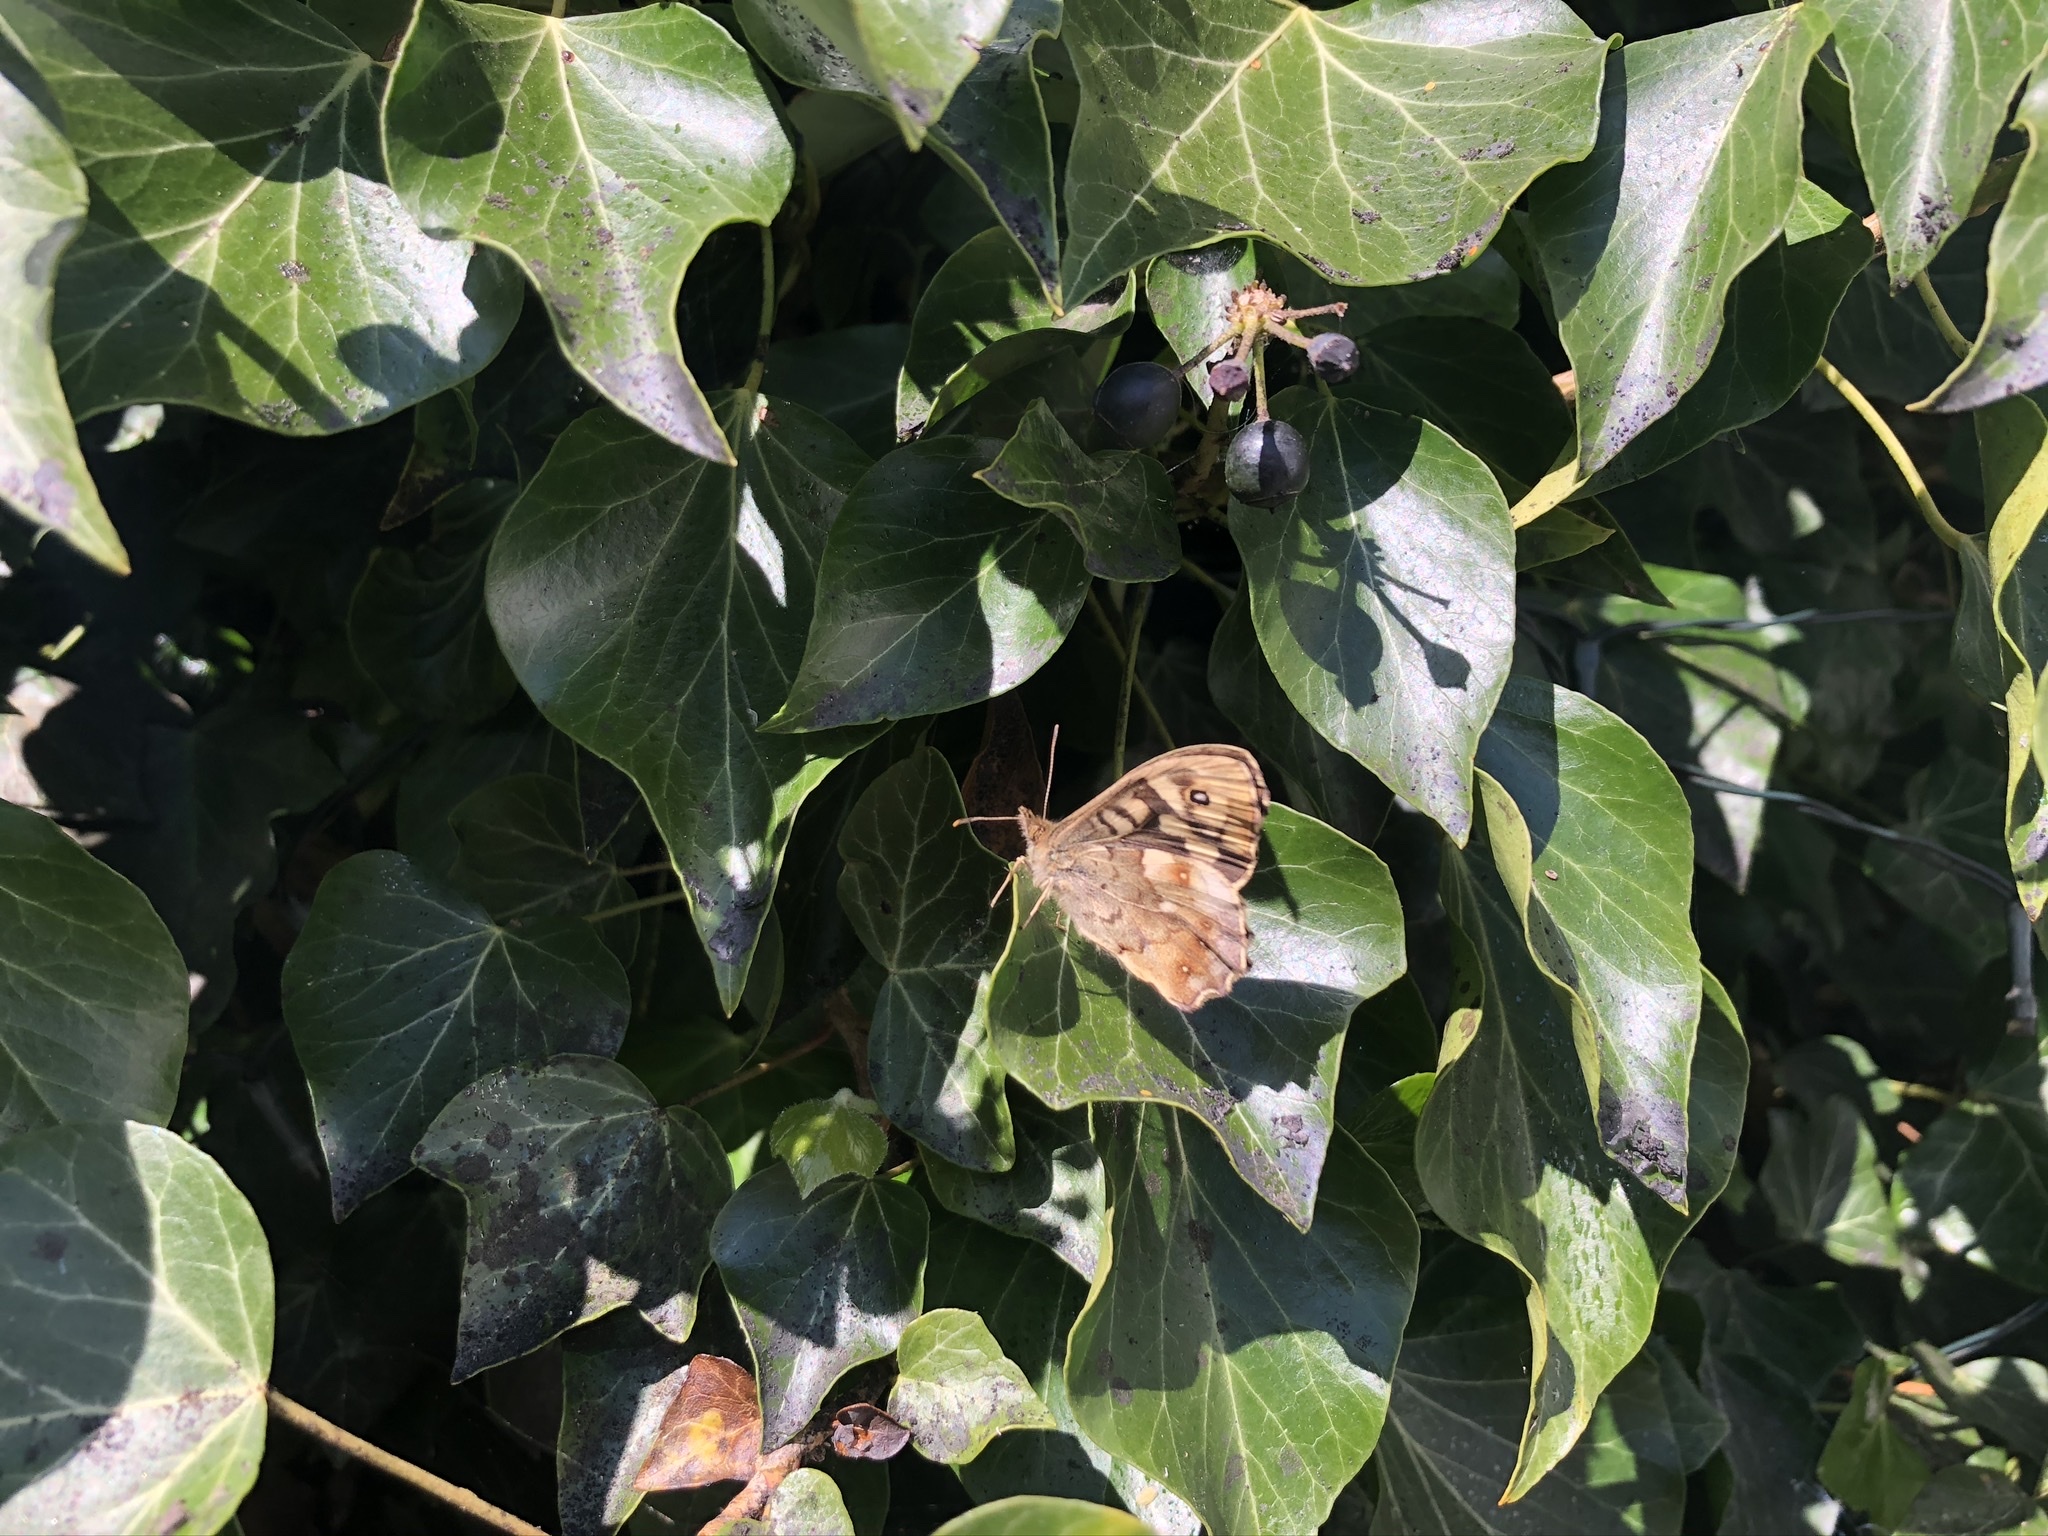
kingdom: Animalia
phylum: Arthropoda
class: Insecta
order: Lepidoptera
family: Nymphalidae
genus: Pararge
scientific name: Pararge aegeria
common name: Speckled wood
